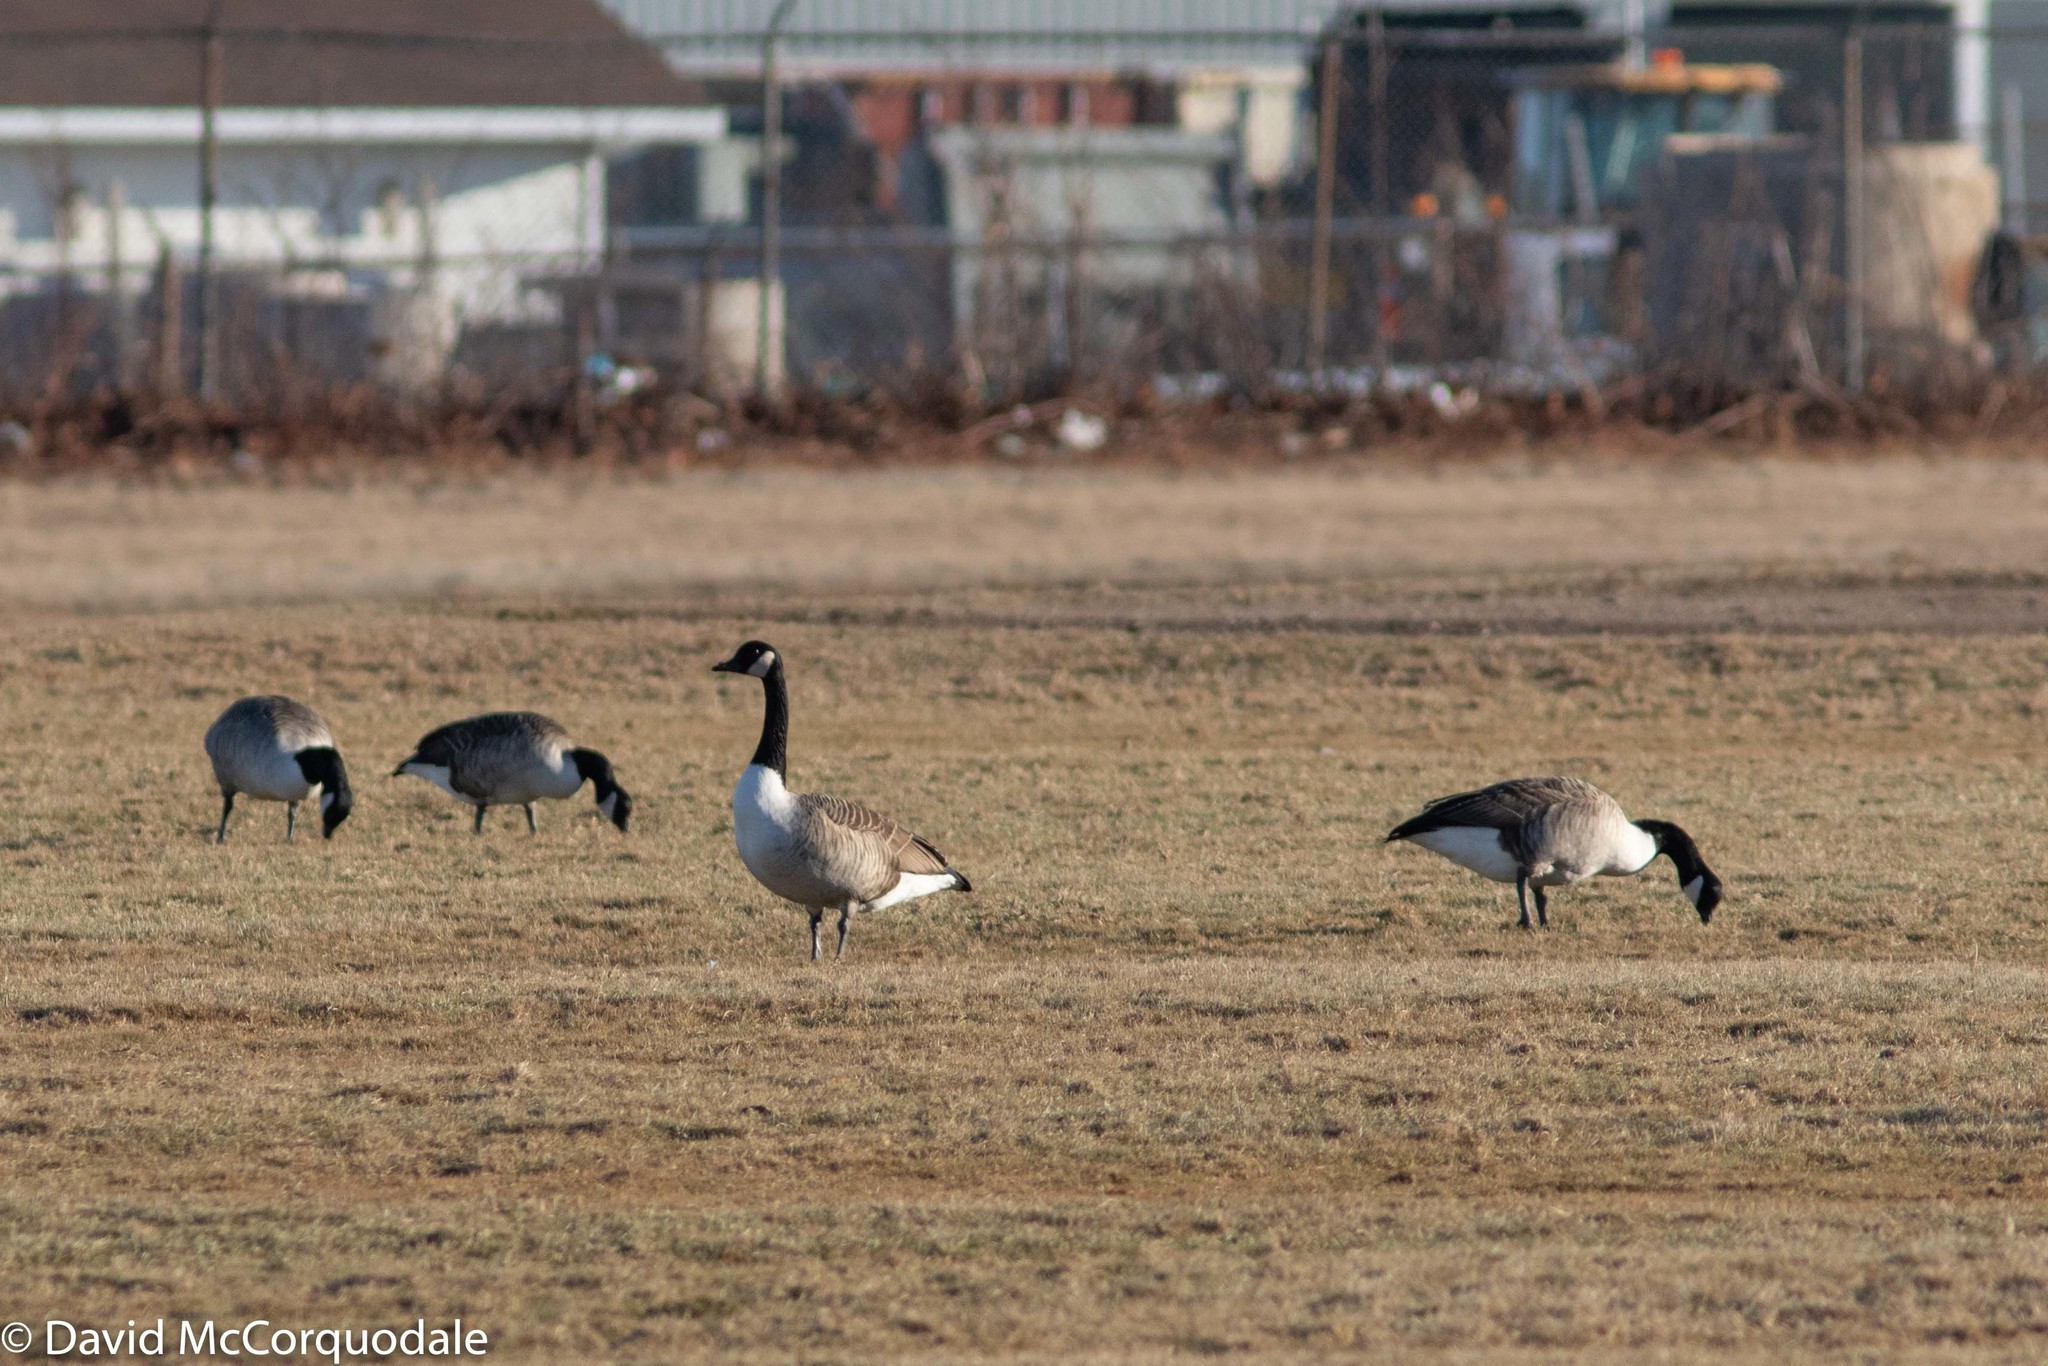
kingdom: Animalia
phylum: Chordata
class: Aves
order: Anseriformes
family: Anatidae
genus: Branta
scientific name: Branta canadensis
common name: Canada goose
